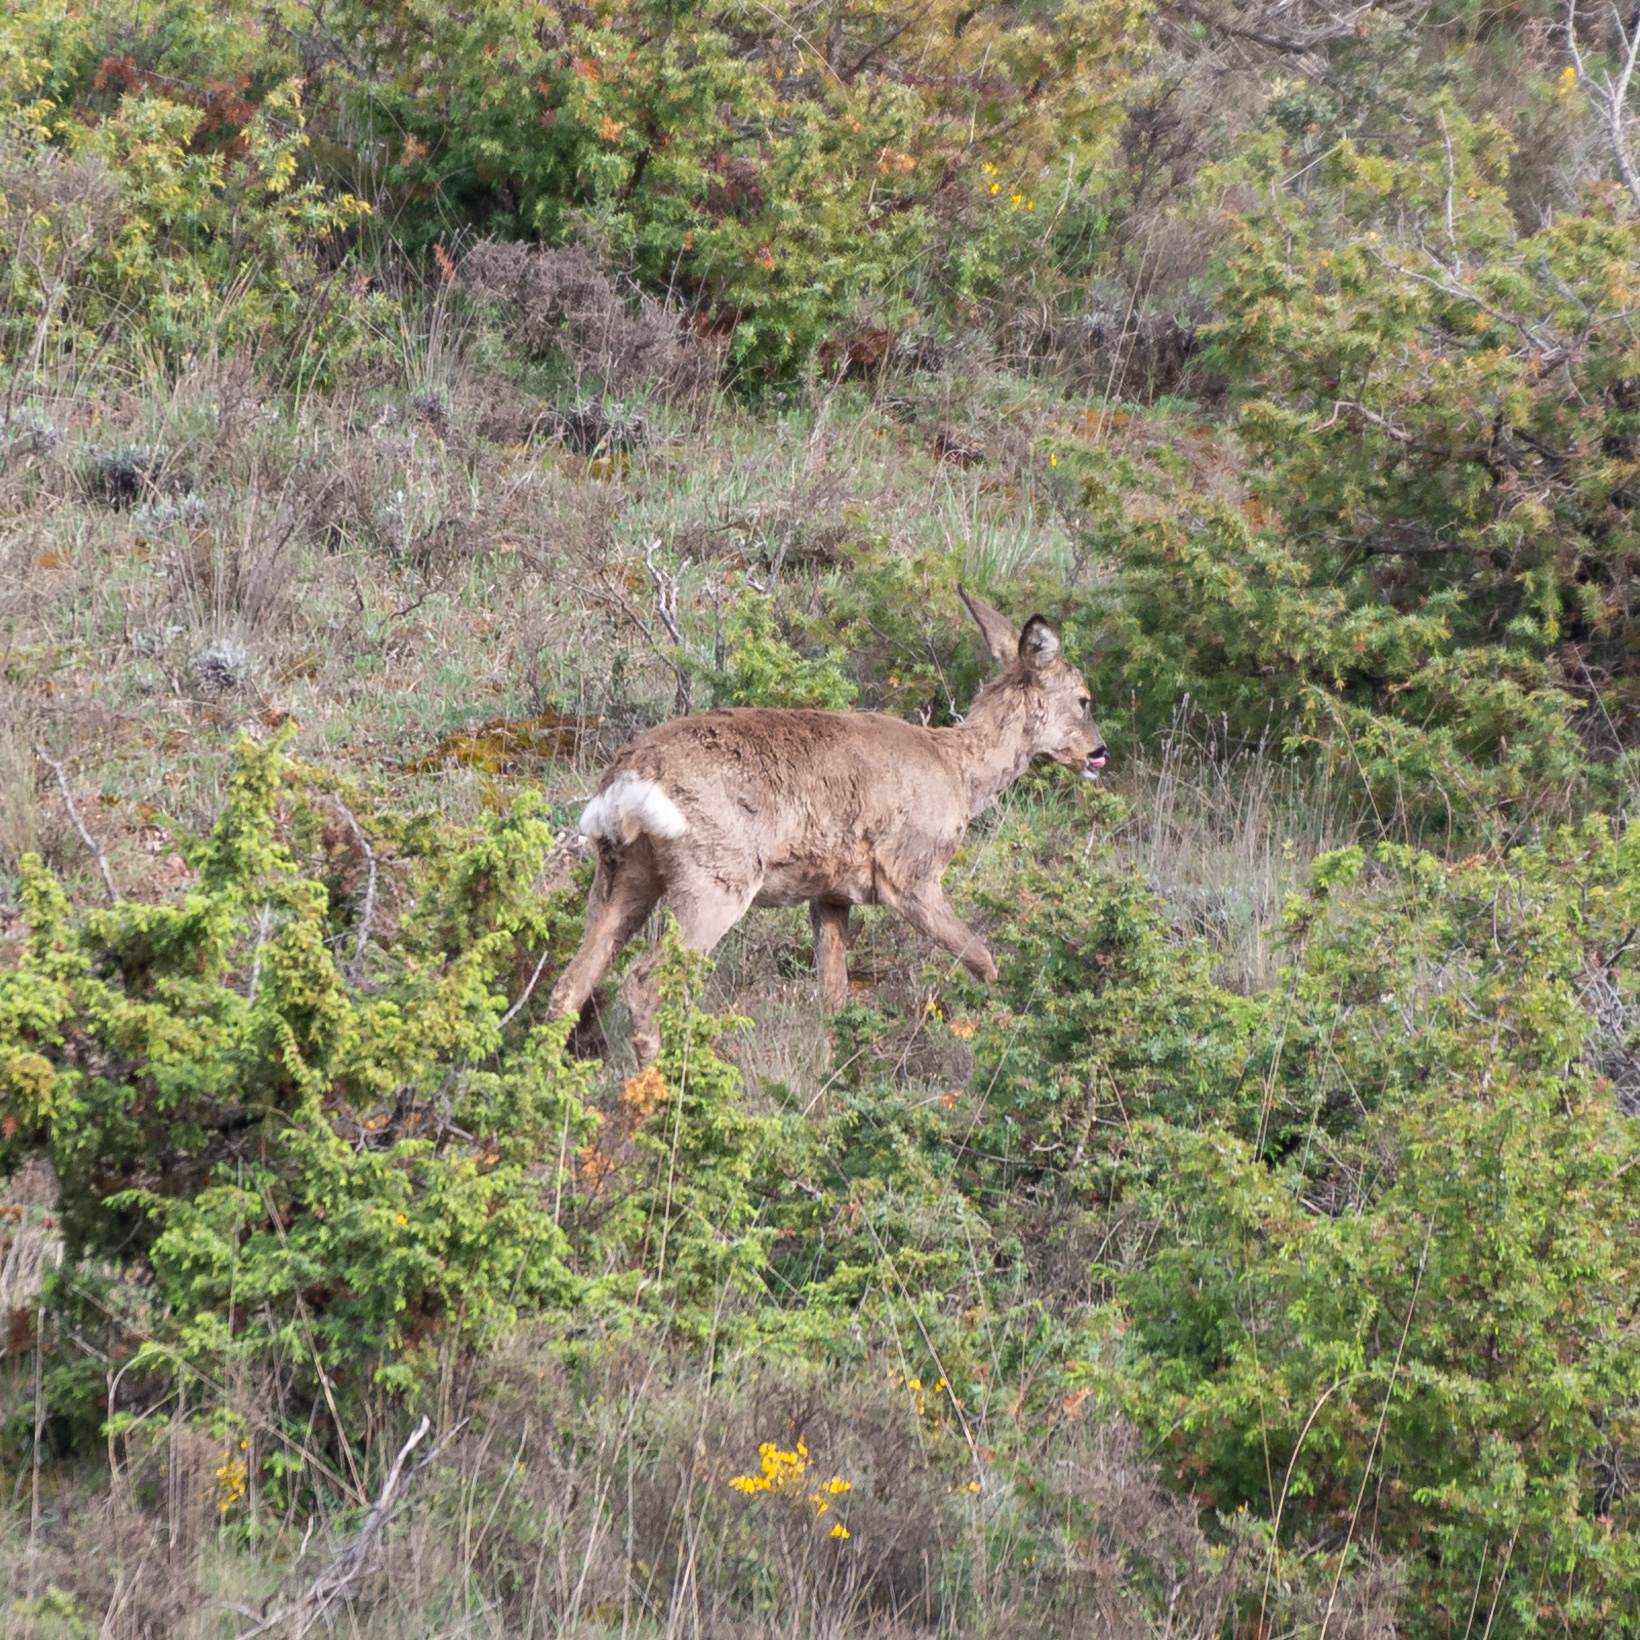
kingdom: Animalia
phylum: Chordata
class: Mammalia
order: Artiodactyla
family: Cervidae
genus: Capreolus
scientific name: Capreolus capreolus
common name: Western roe deer
